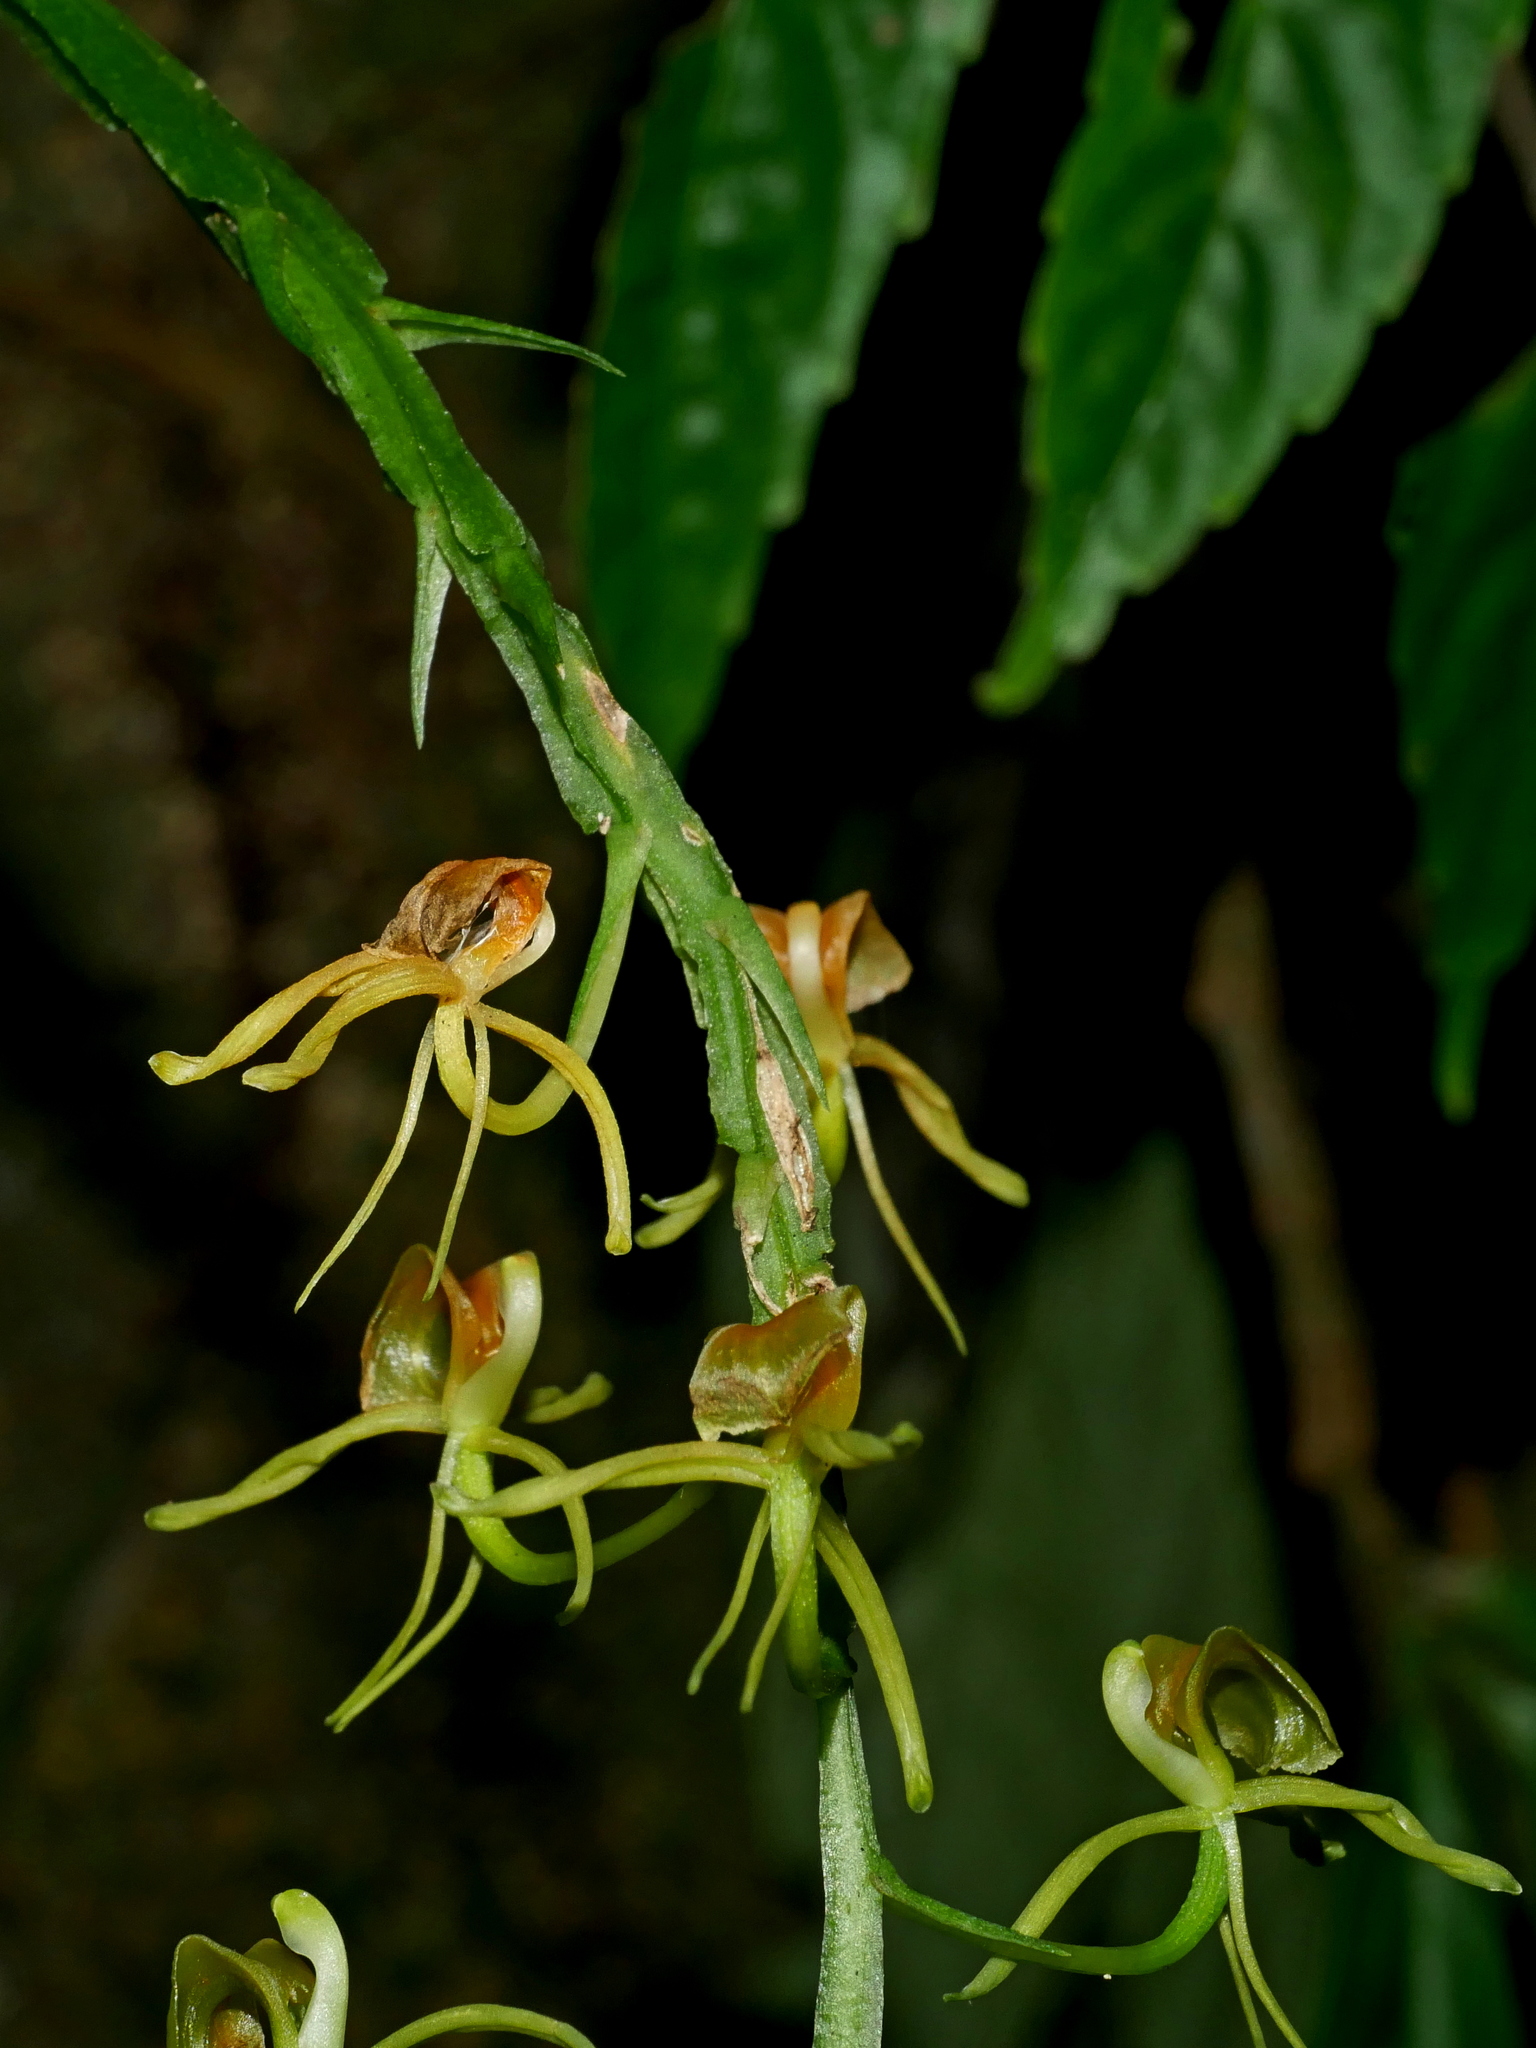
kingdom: Plantae
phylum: Tracheophyta
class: Liliopsida
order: Asparagales
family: Orchidaceae
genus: Liparis
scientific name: Liparis nakaharae
